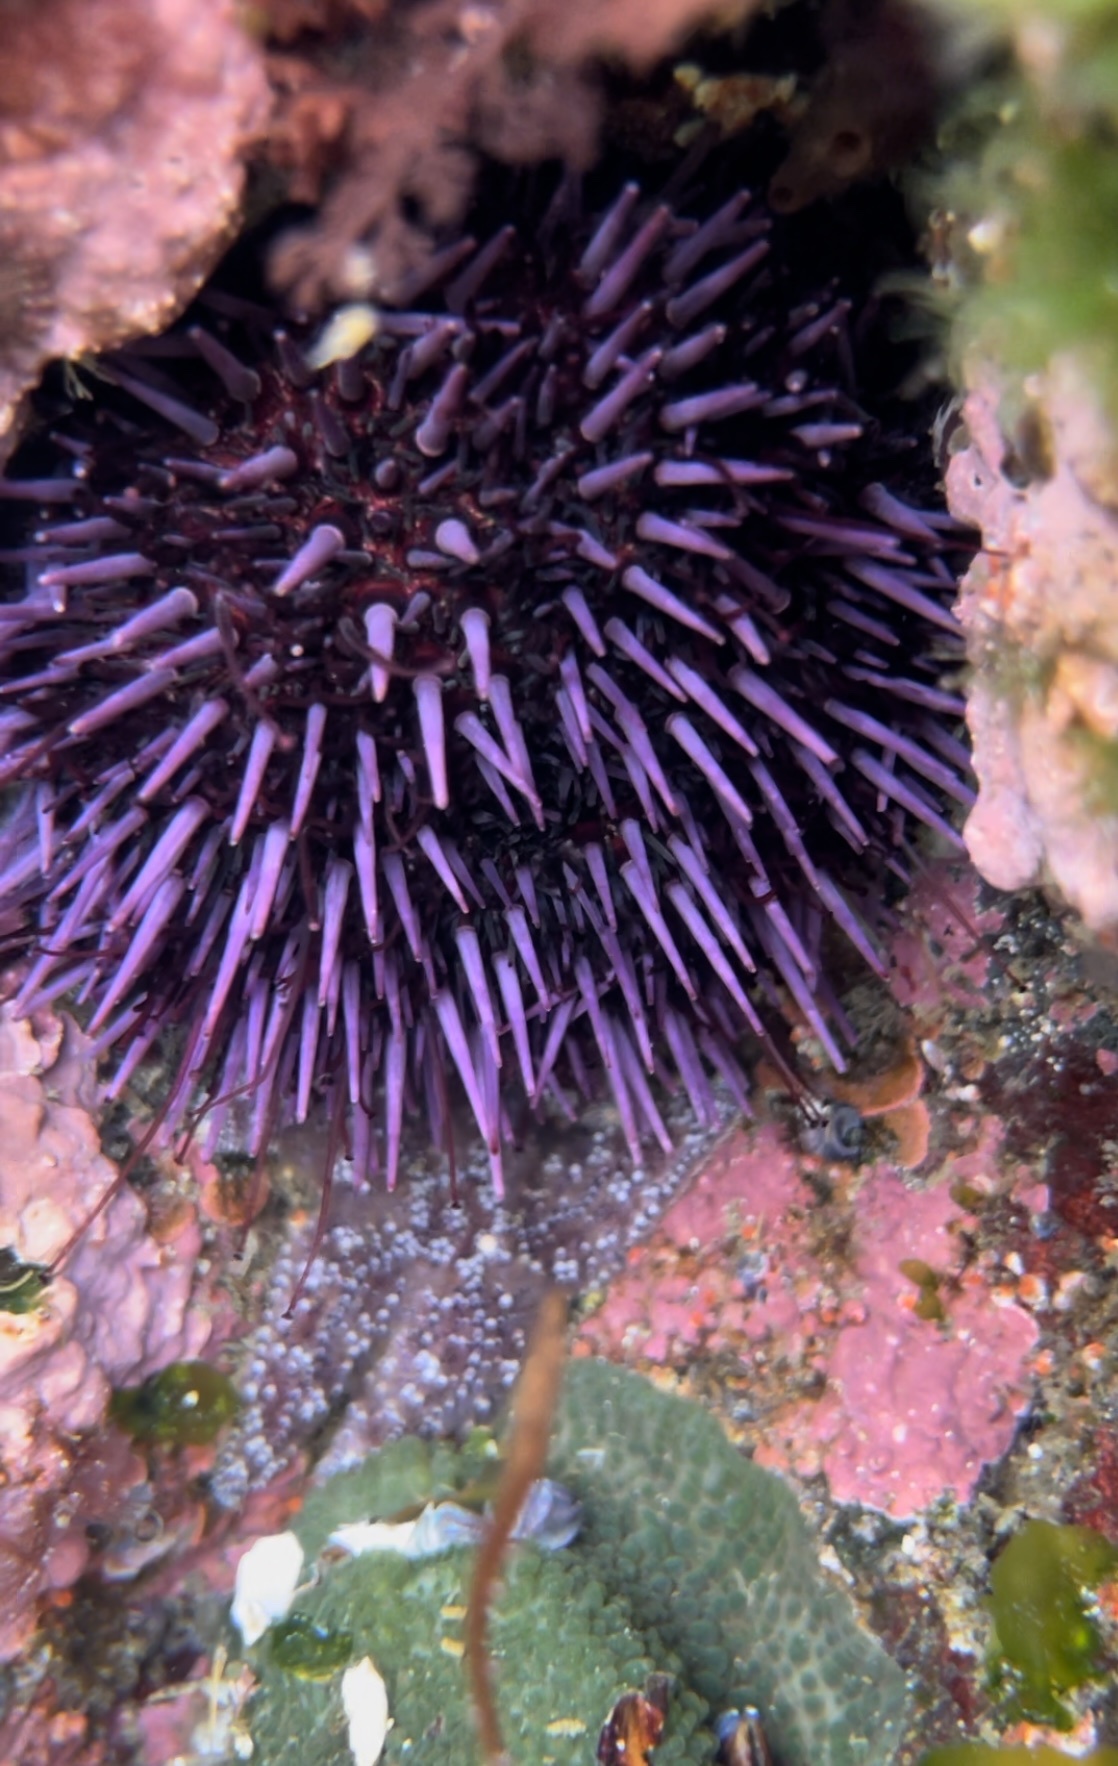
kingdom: Animalia
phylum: Echinodermata
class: Echinoidea
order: Camarodonta
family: Strongylocentrotidae
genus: Strongylocentrotus
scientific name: Strongylocentrotus purpuratus
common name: Purple sea urchin
